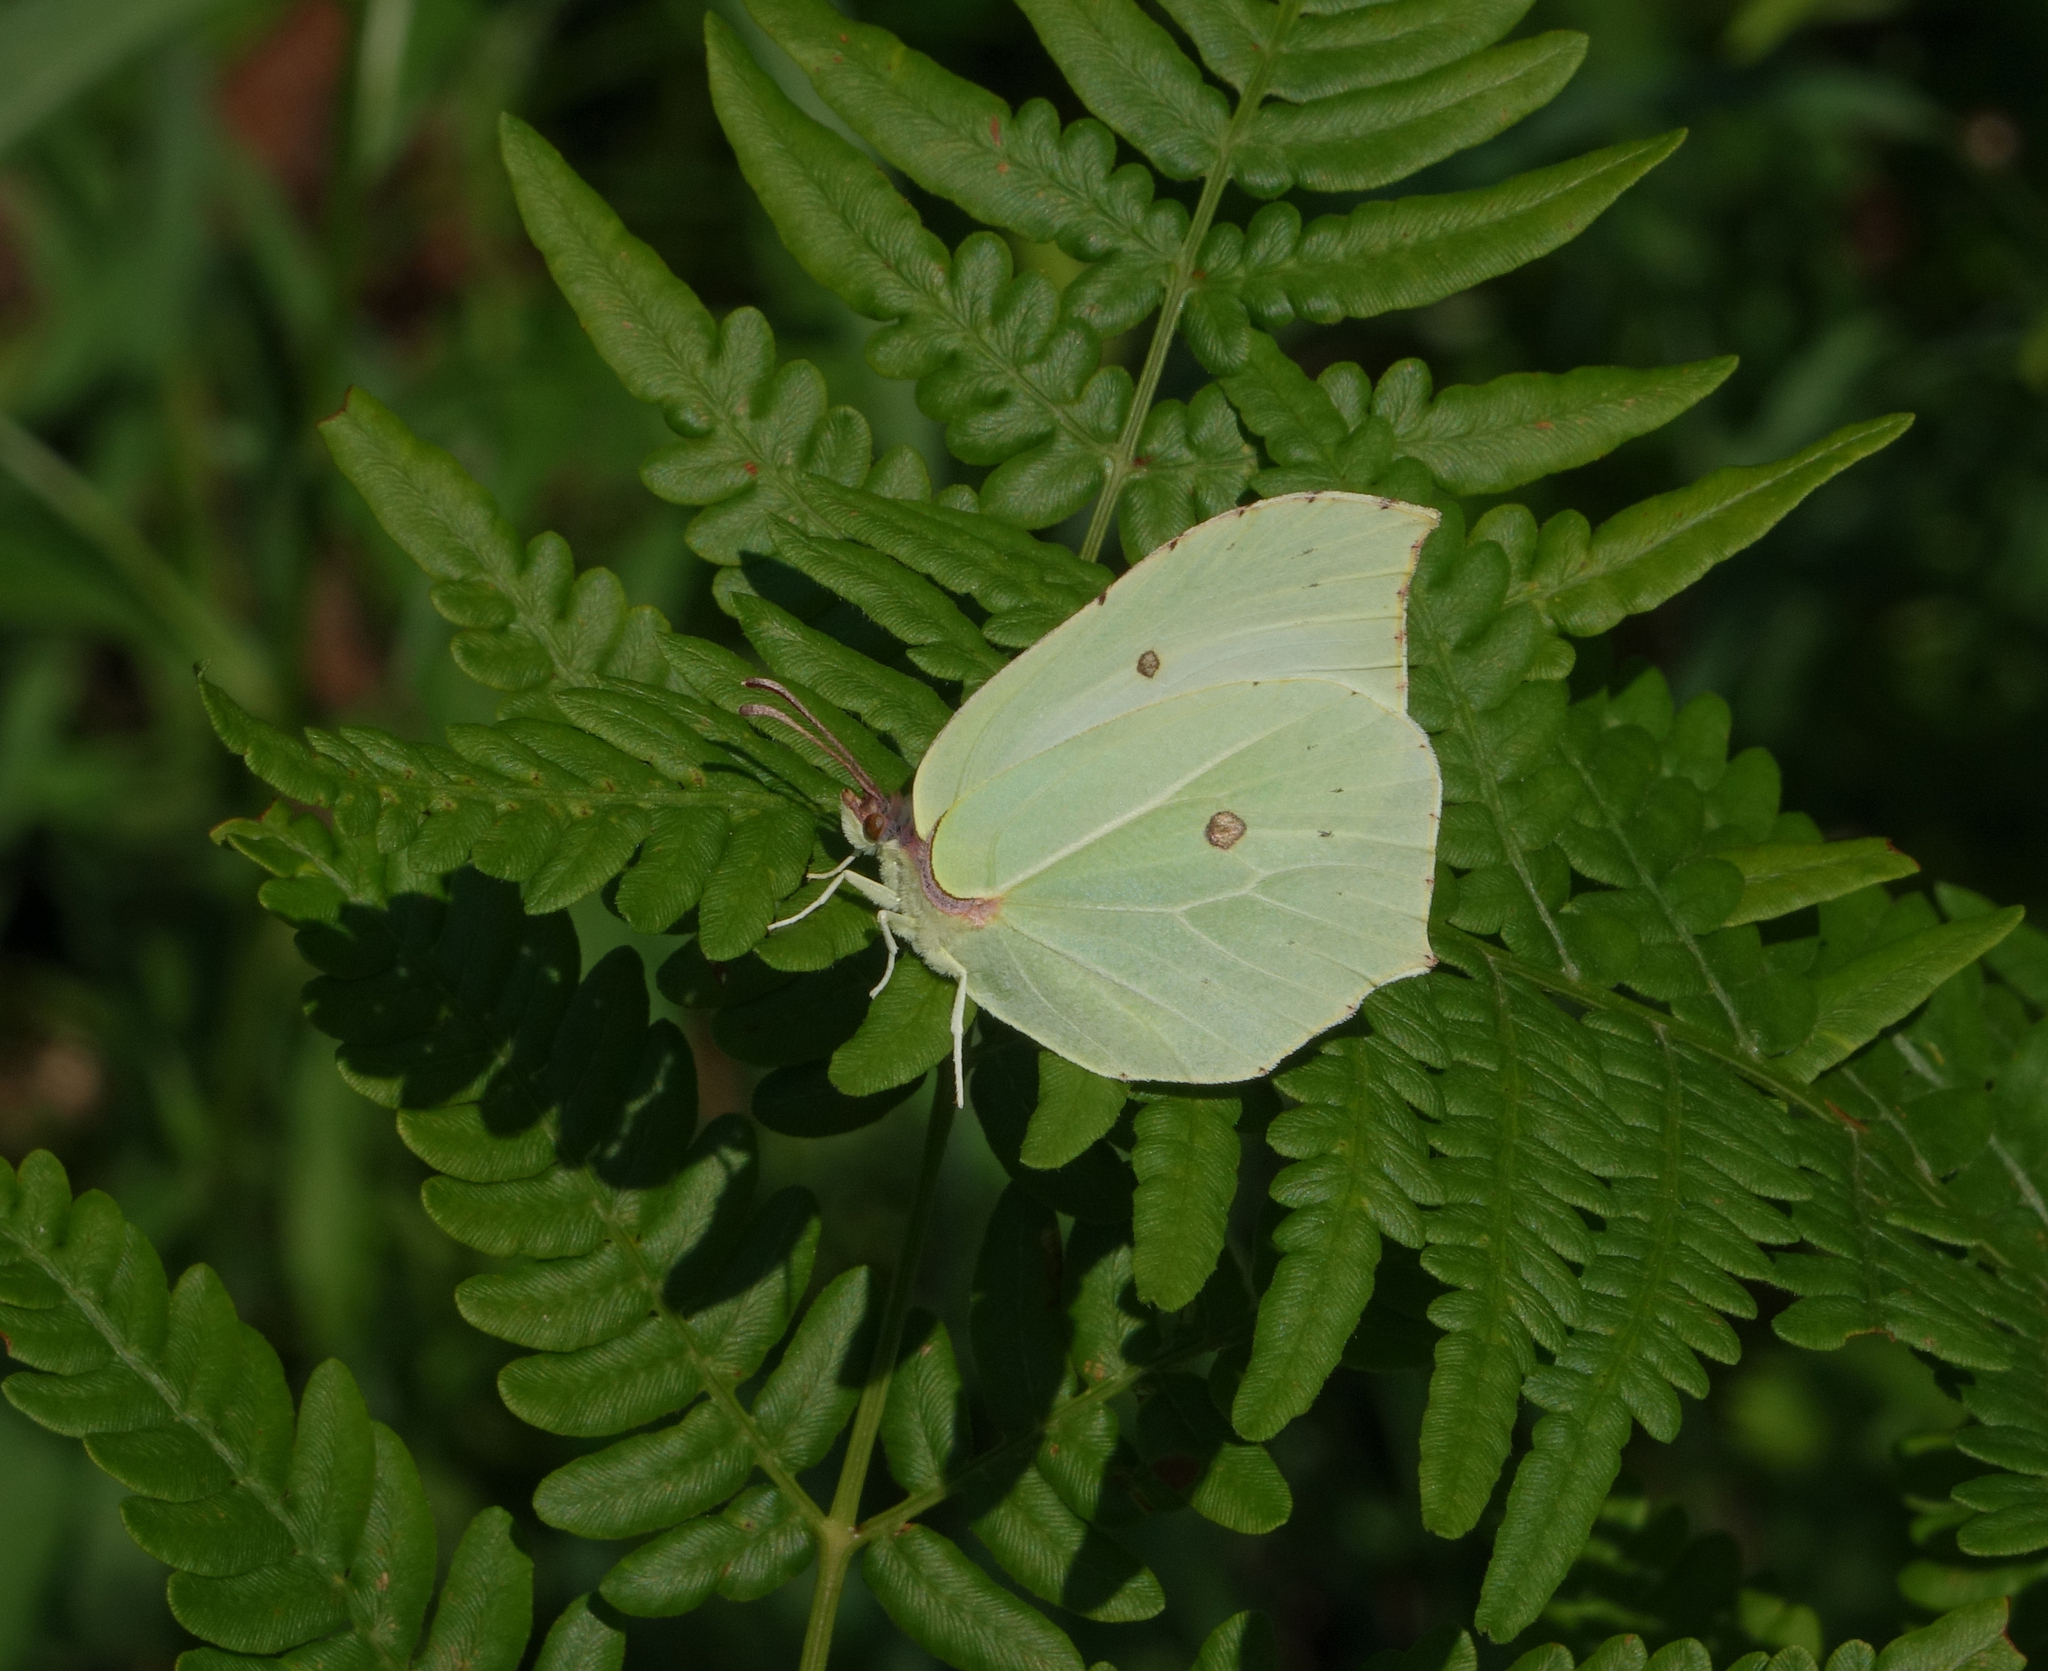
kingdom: Plantae
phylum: Tracheophyta
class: Polypodiopsida
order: Polypodiales
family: Dennstaedtiaceae
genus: Pteridium
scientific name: Pteridium aquilinum
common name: Bracken
